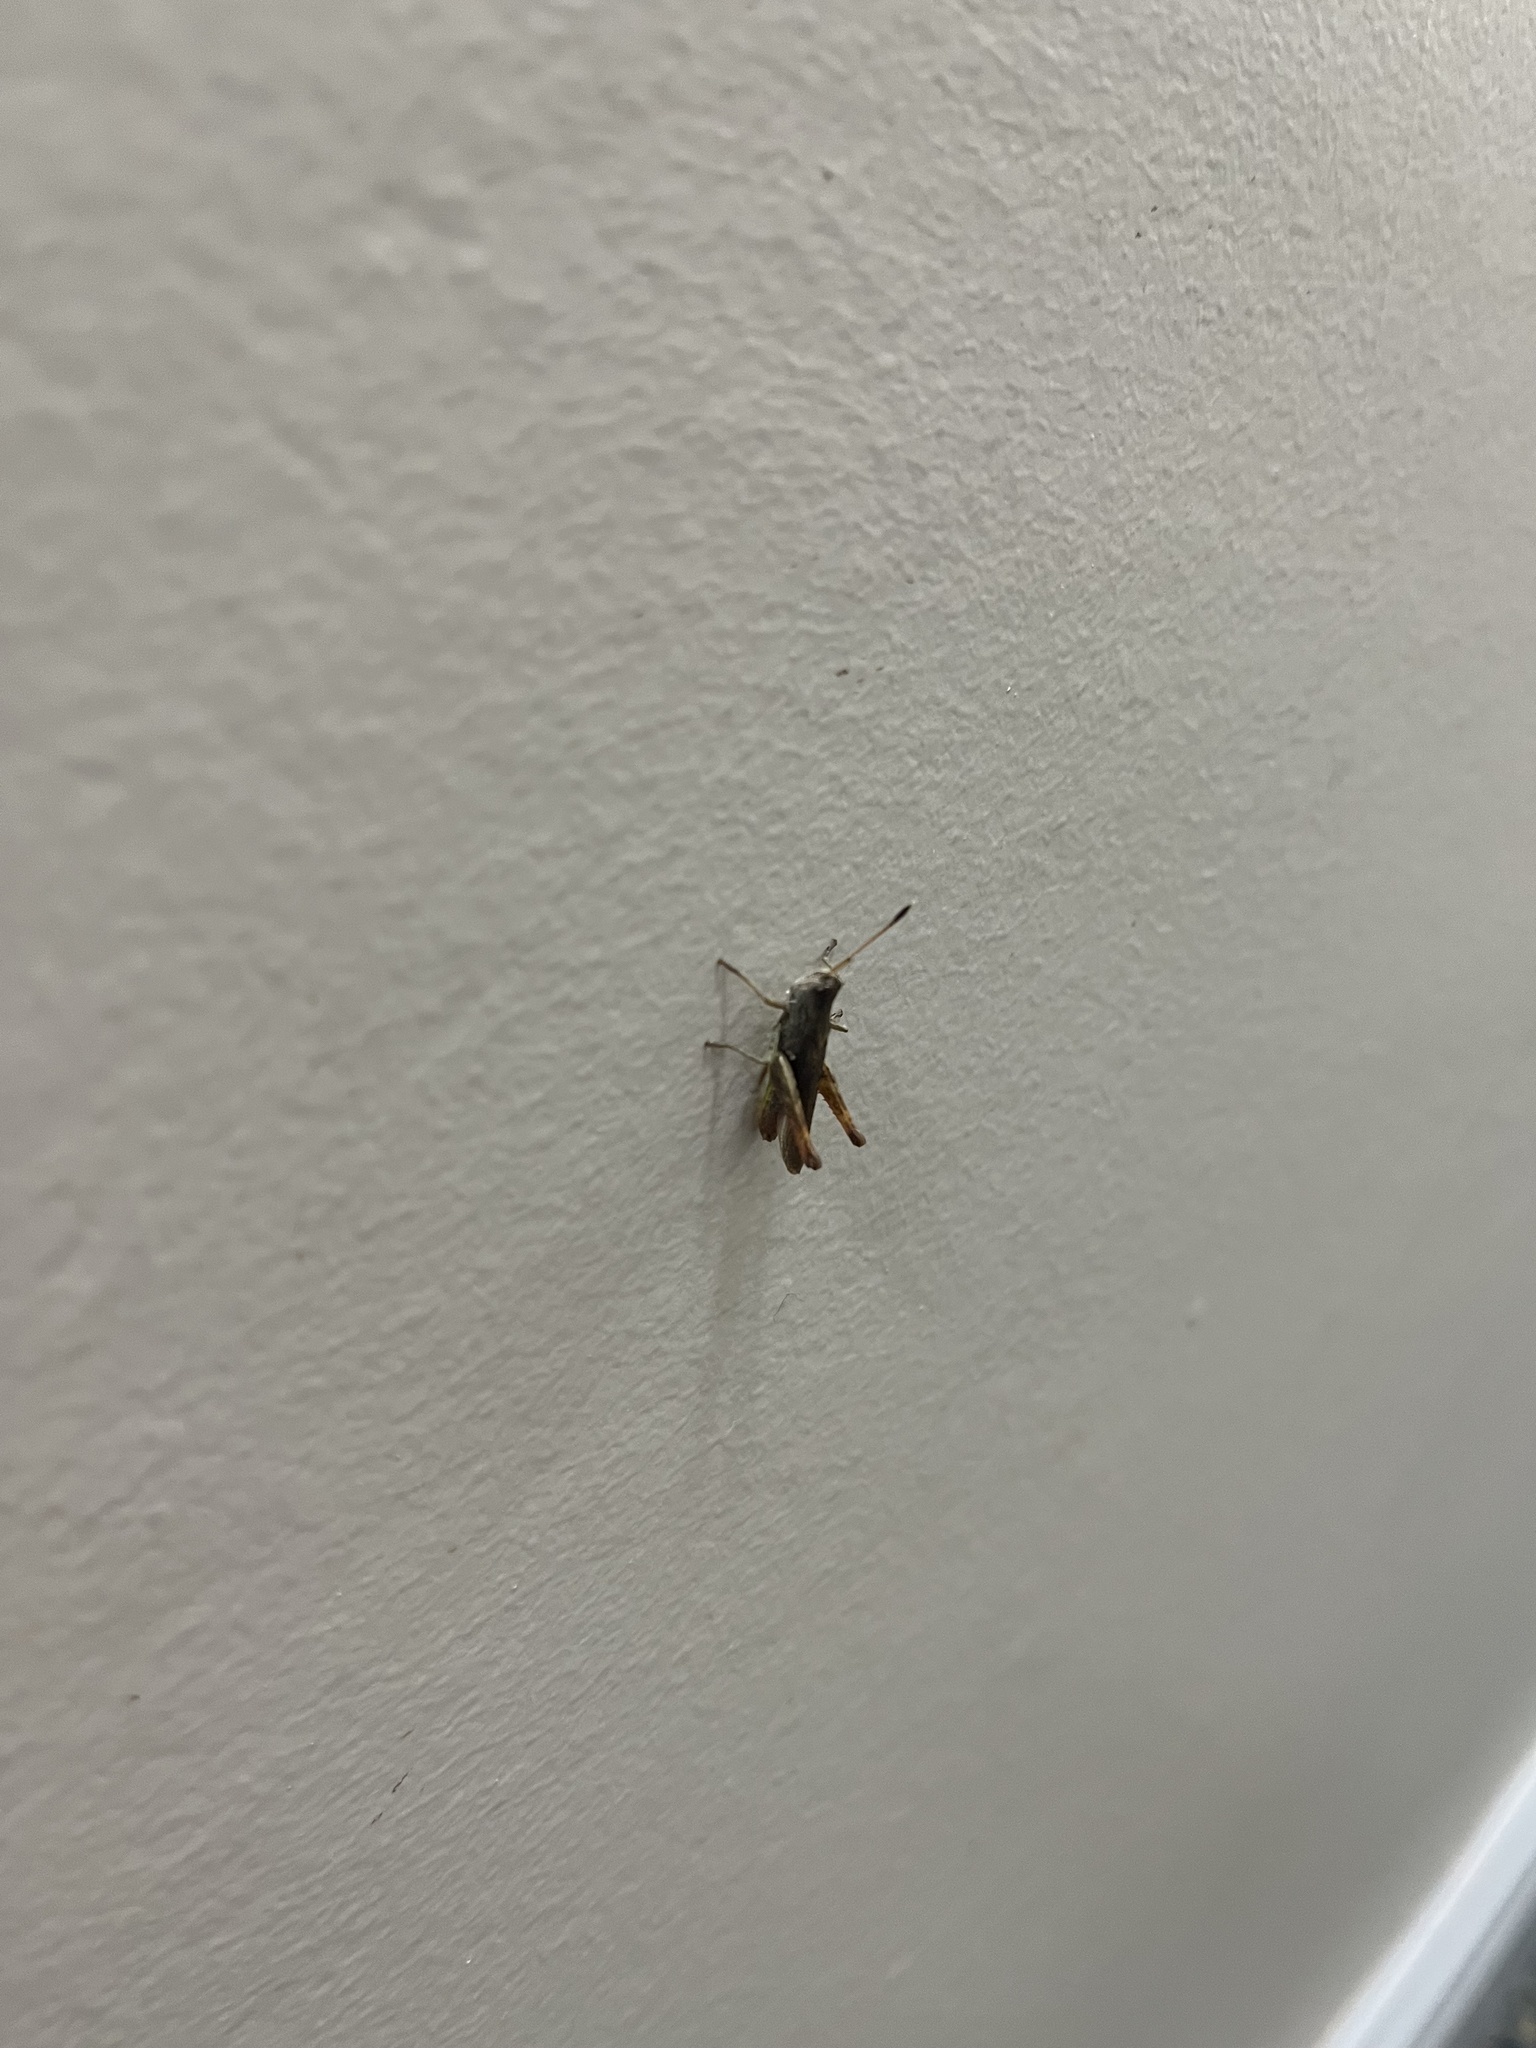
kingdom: Animalia
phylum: Arthropoda
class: Insecta
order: Orthoptera
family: Acrididae
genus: Gomphocerippus
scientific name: Gomphocerippus rufus
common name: Rufous grasshopper
